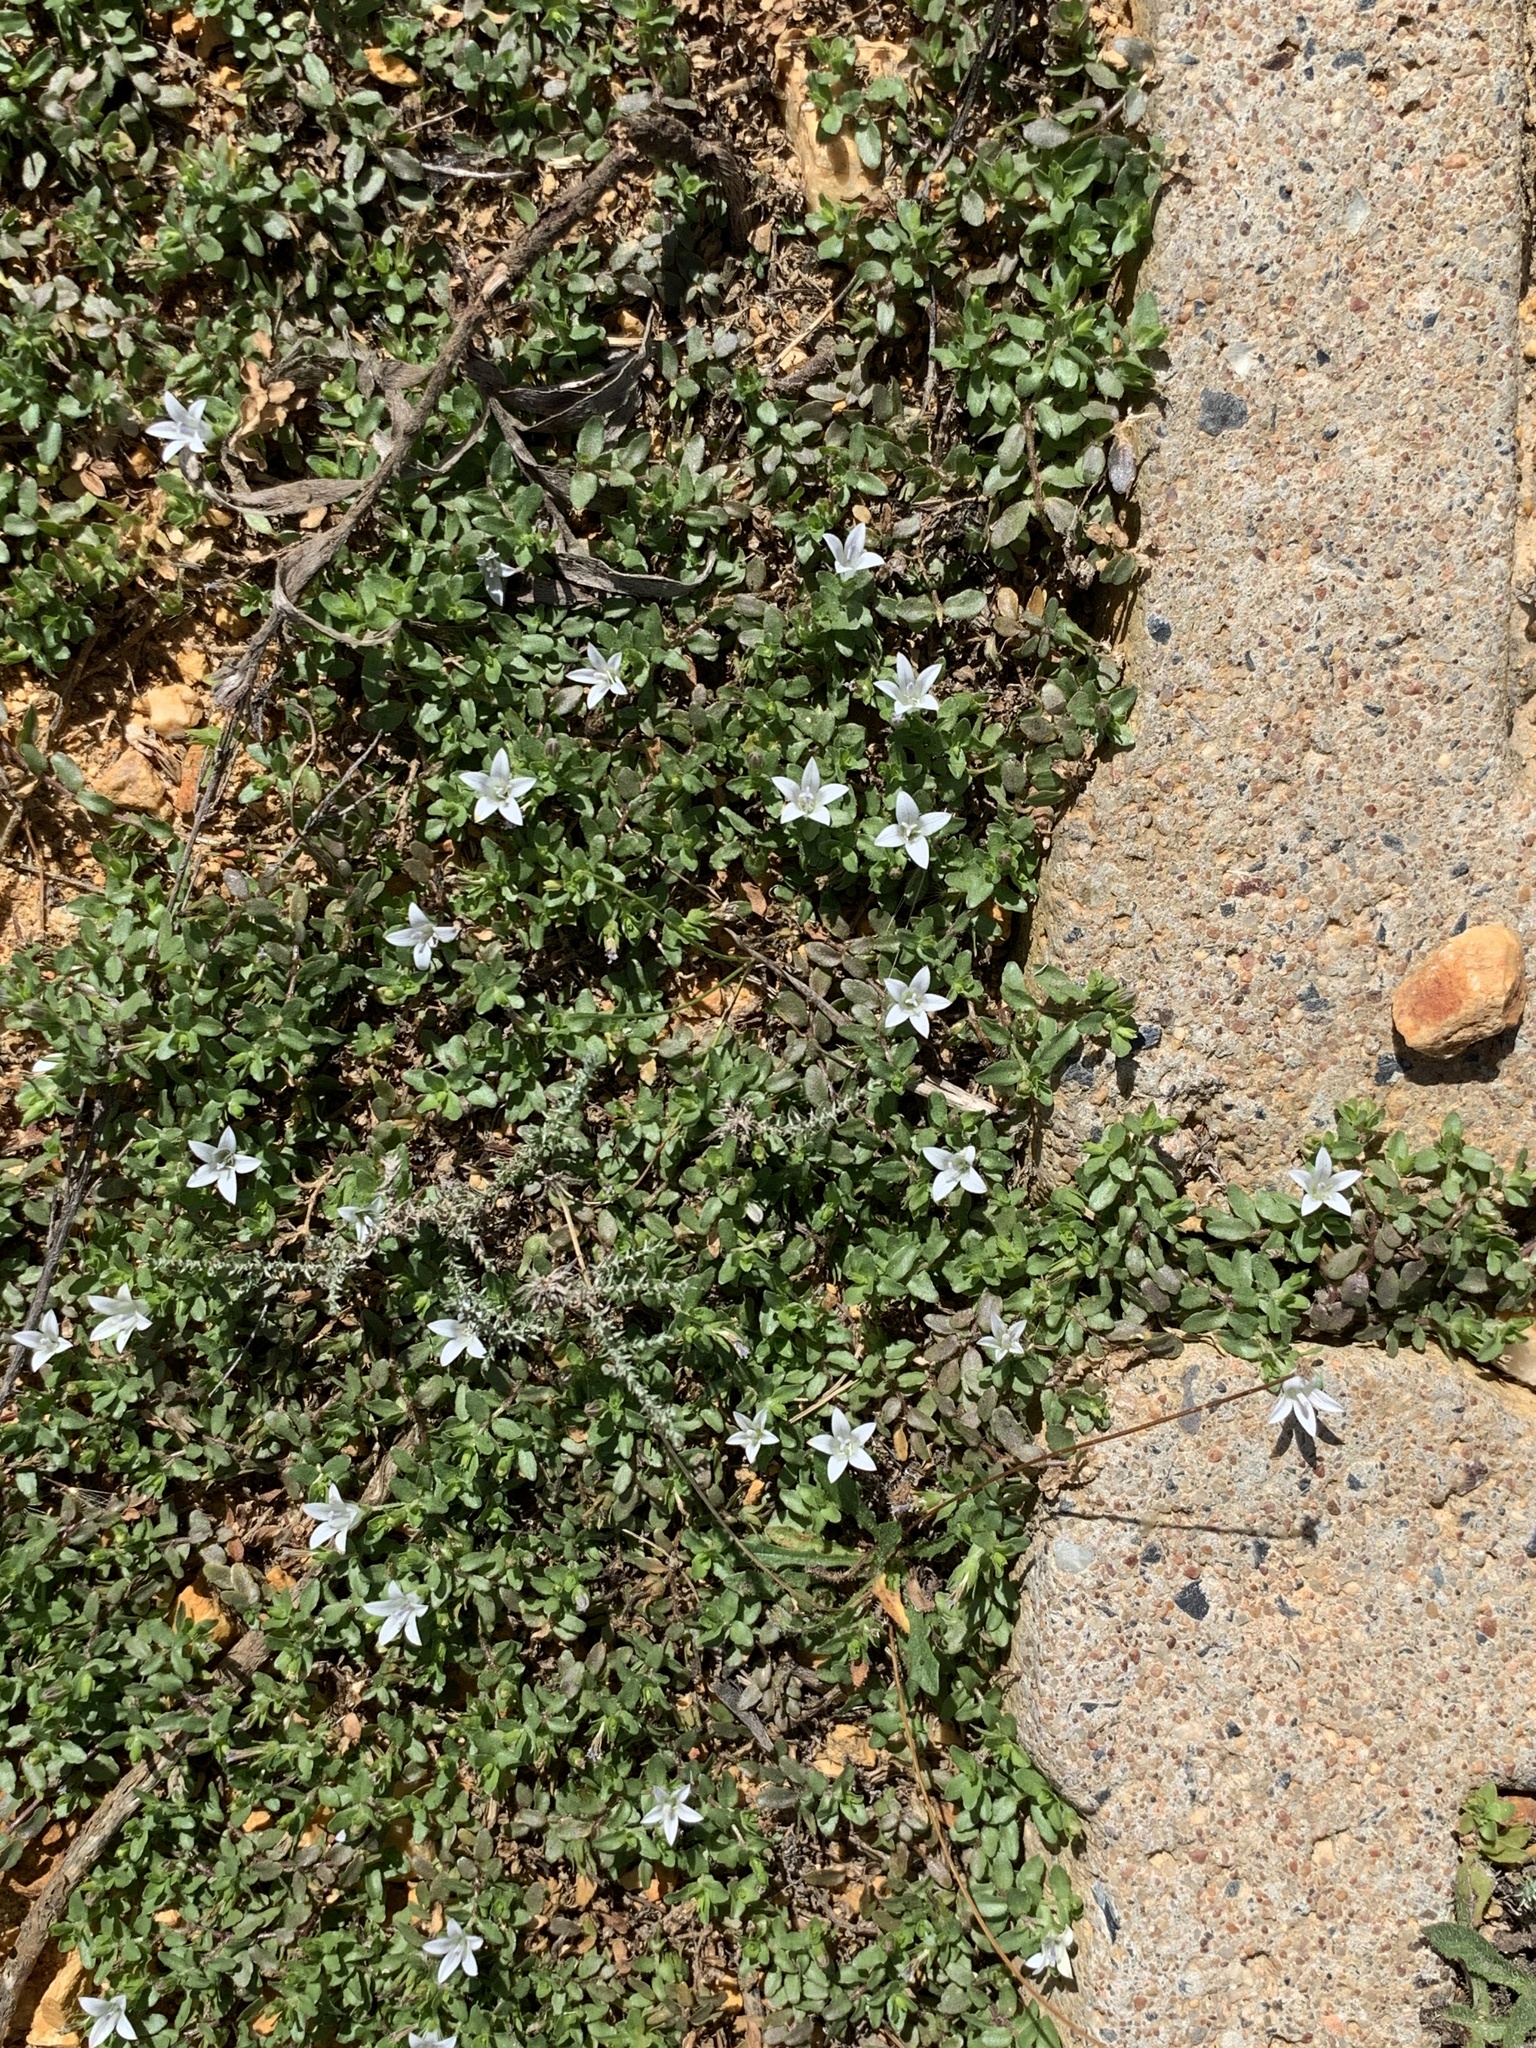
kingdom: Plantae
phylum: Tracheophyta
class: Magnoliopsida
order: Asterales
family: Campanulaceae
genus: Wahlenbergia
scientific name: Wahlenbergia procumbens
